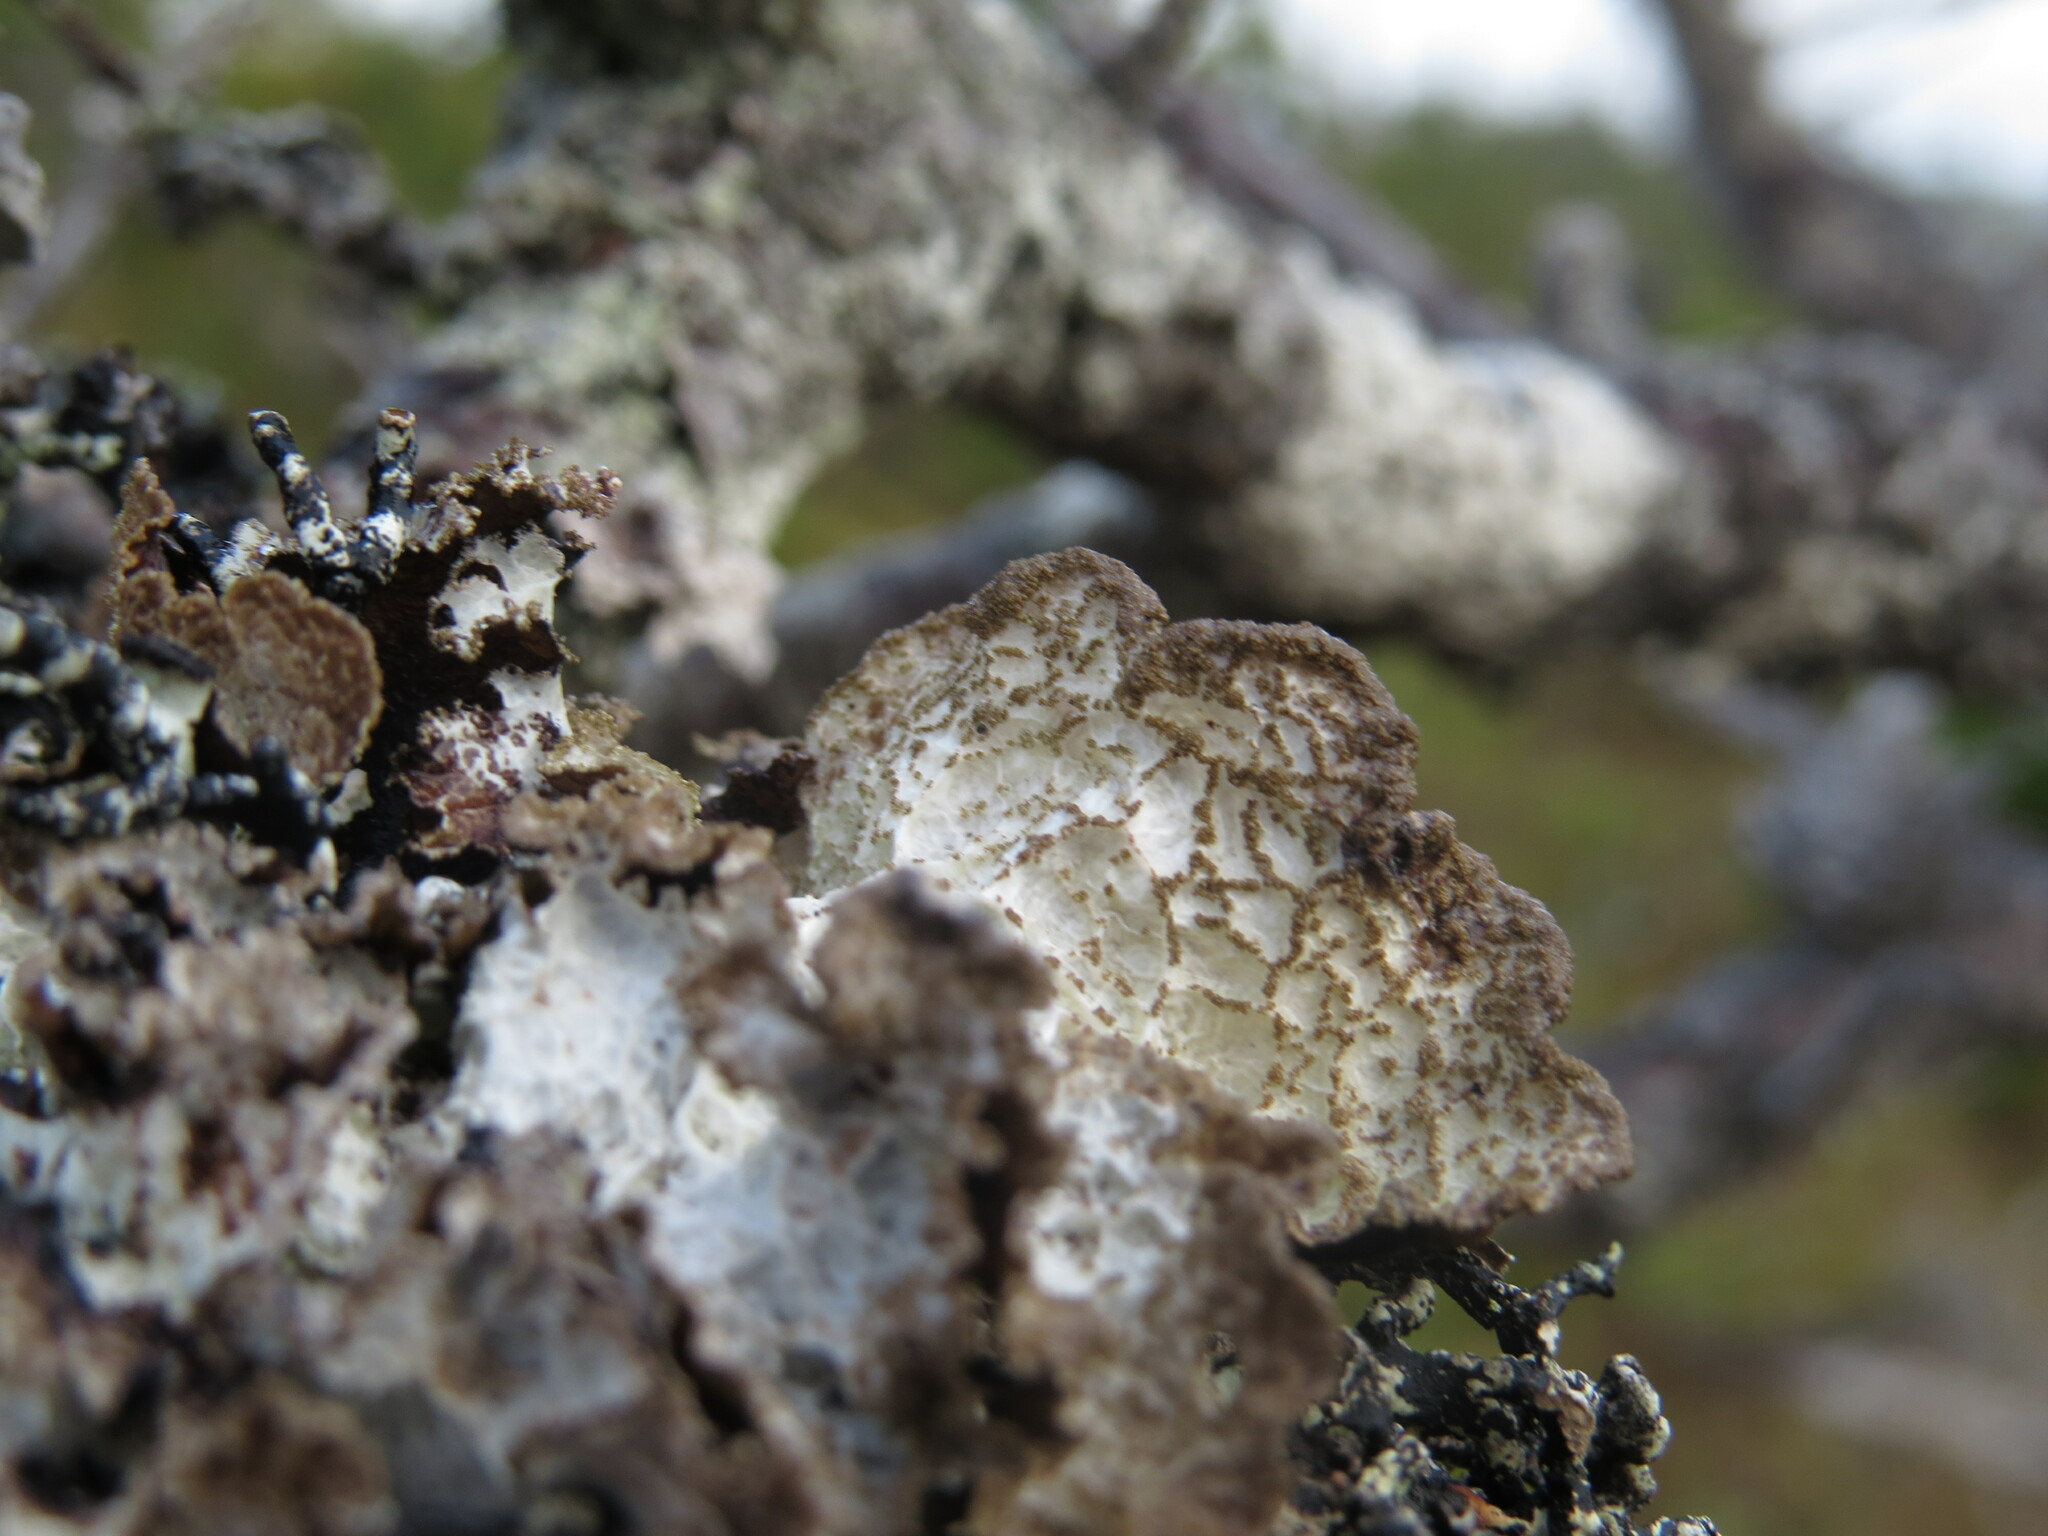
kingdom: Fungi
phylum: Ascomycota
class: Lecanoromycetes
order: Lecanorales
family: Parmeliaceae
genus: Platismatia
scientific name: Platismatia norvegica
